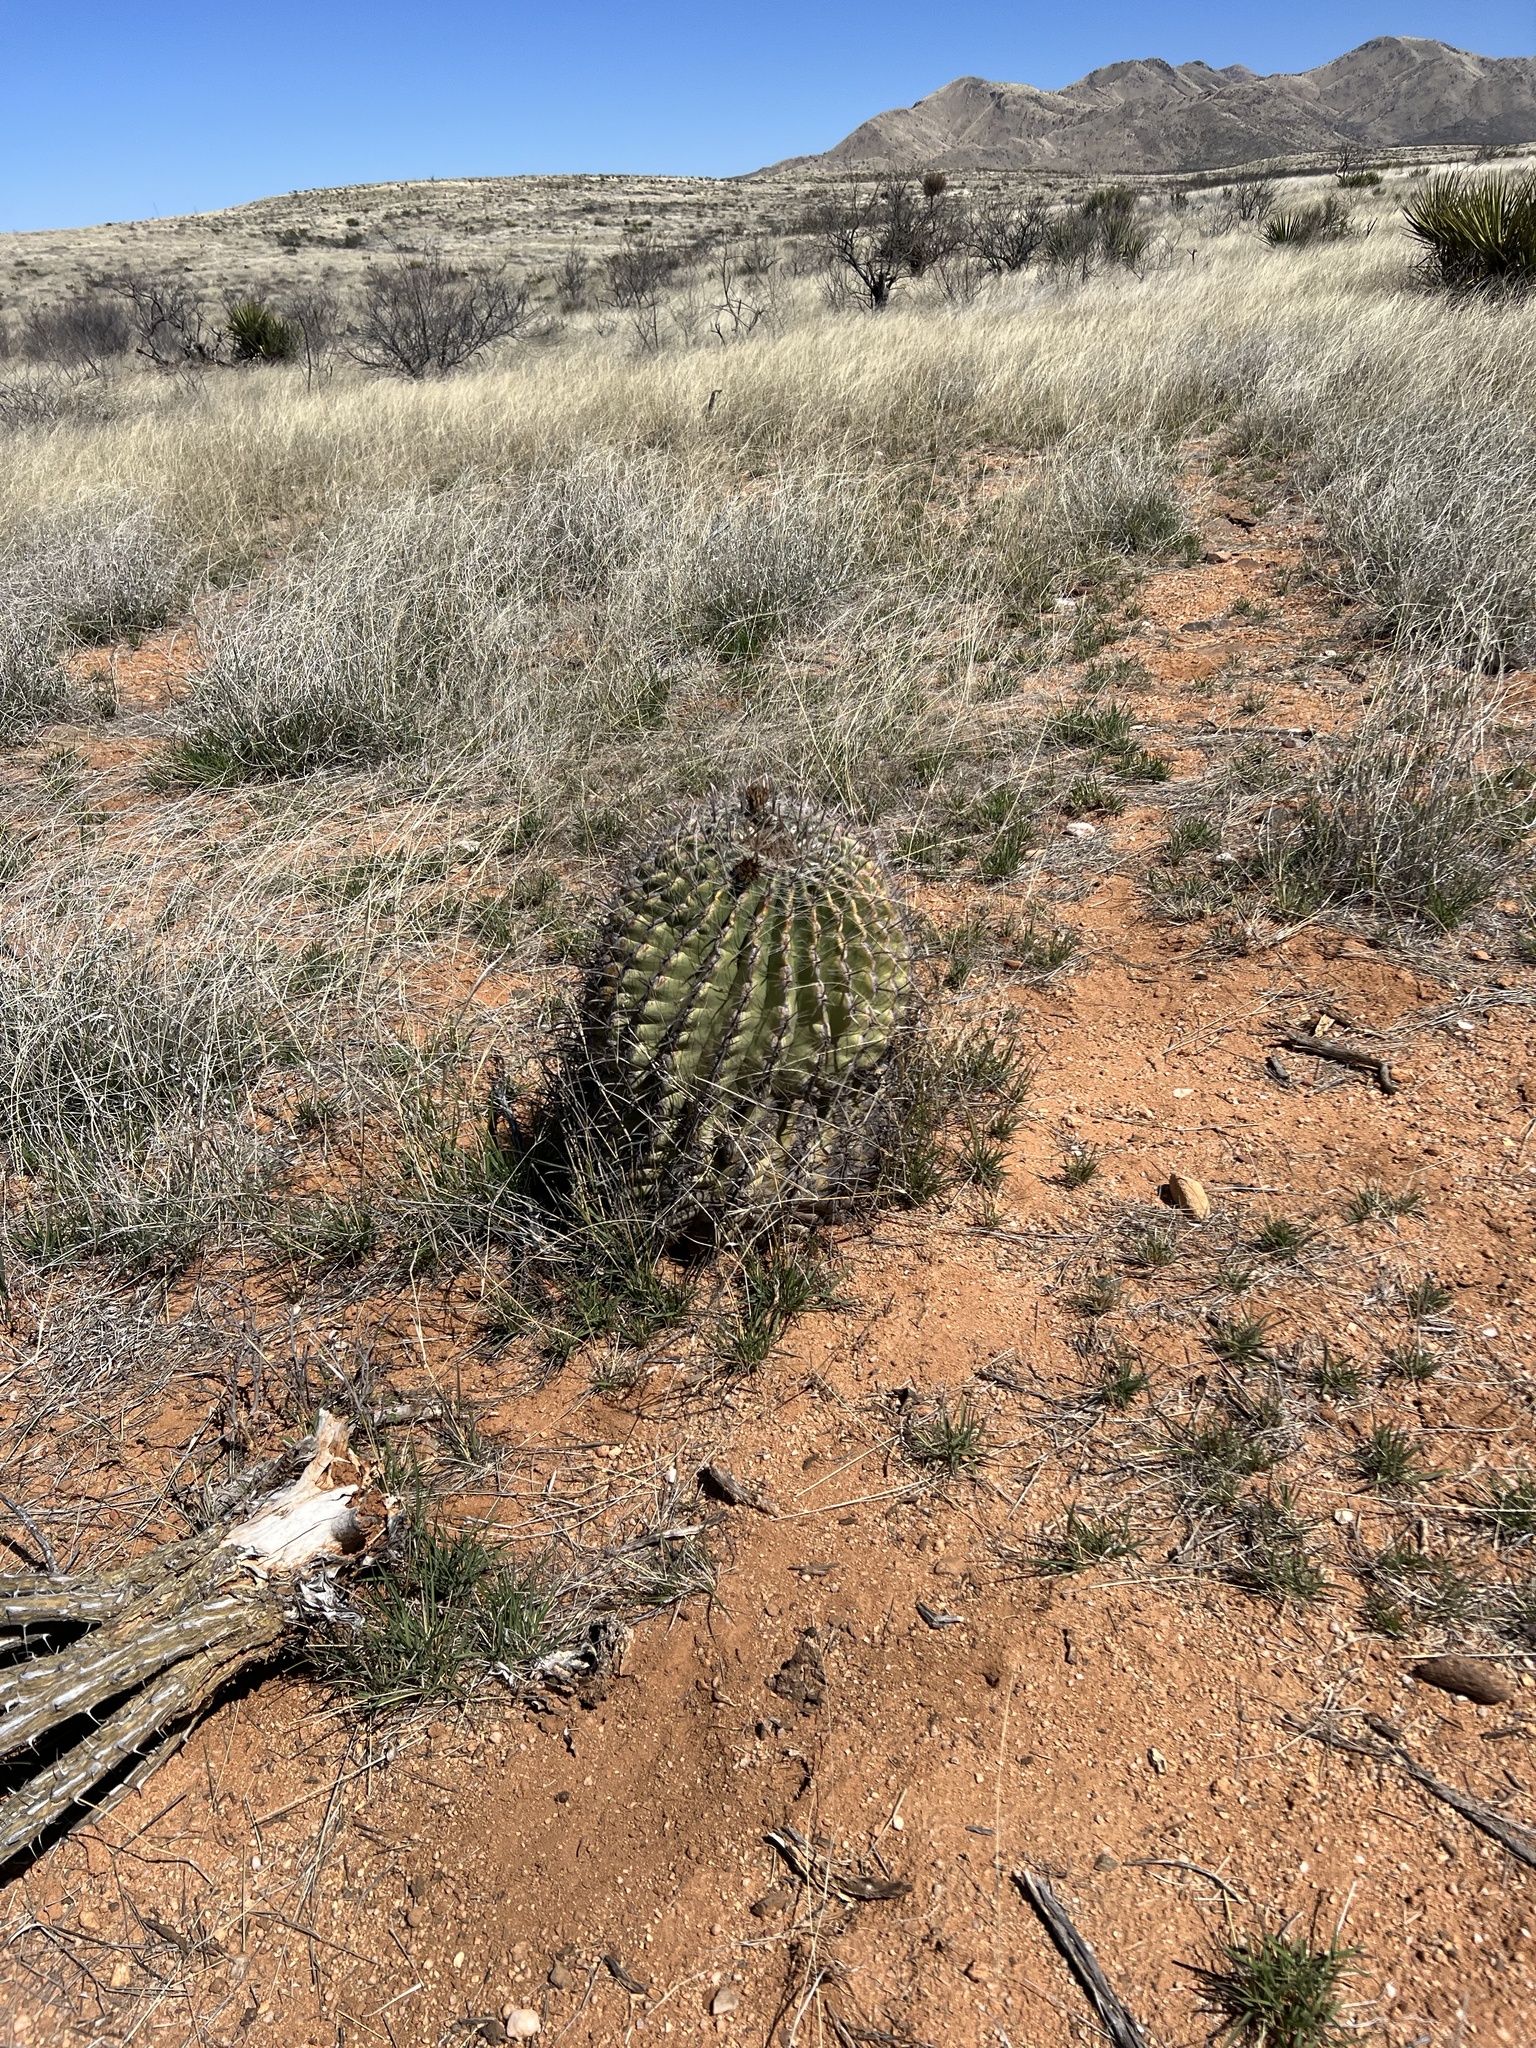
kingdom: Plantae
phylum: Tracheophyta
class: Magnoliopsida
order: Caryophyllales
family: Cactaceae
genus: Ferocactus
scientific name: Ferocactus wislizeni
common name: Candy barrel cactus
